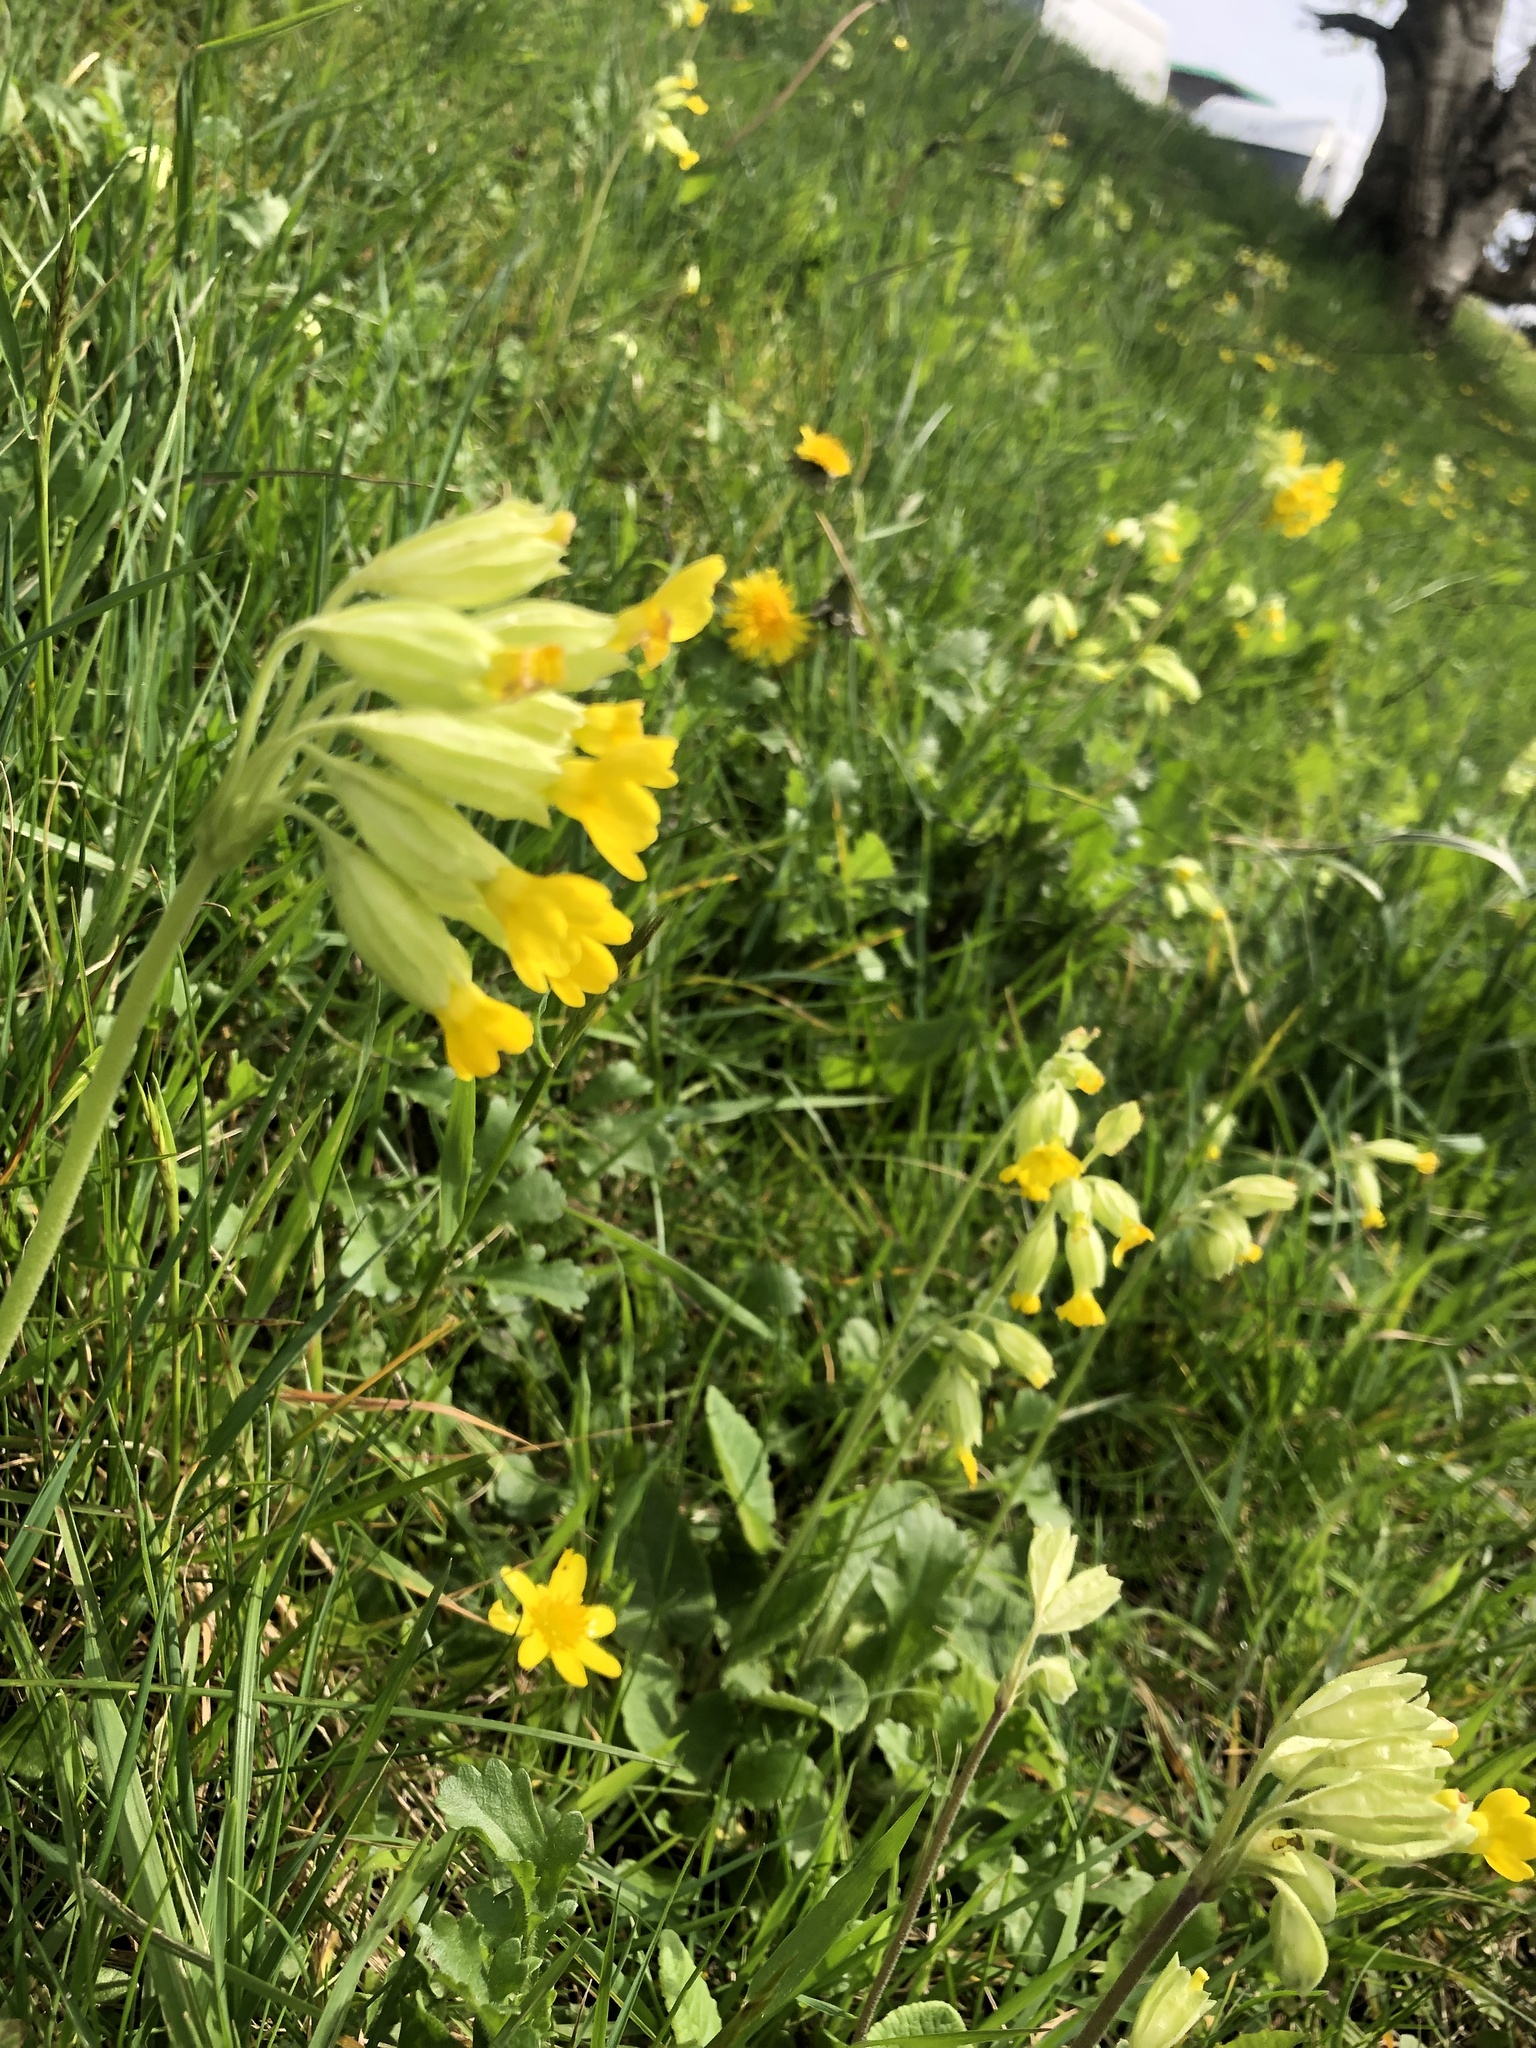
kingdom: Plantae
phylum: Tracheophyta
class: Magnoliopsida
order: Ericales
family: Primulaceae
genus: Primula
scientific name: Primula veris
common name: Cowslip
